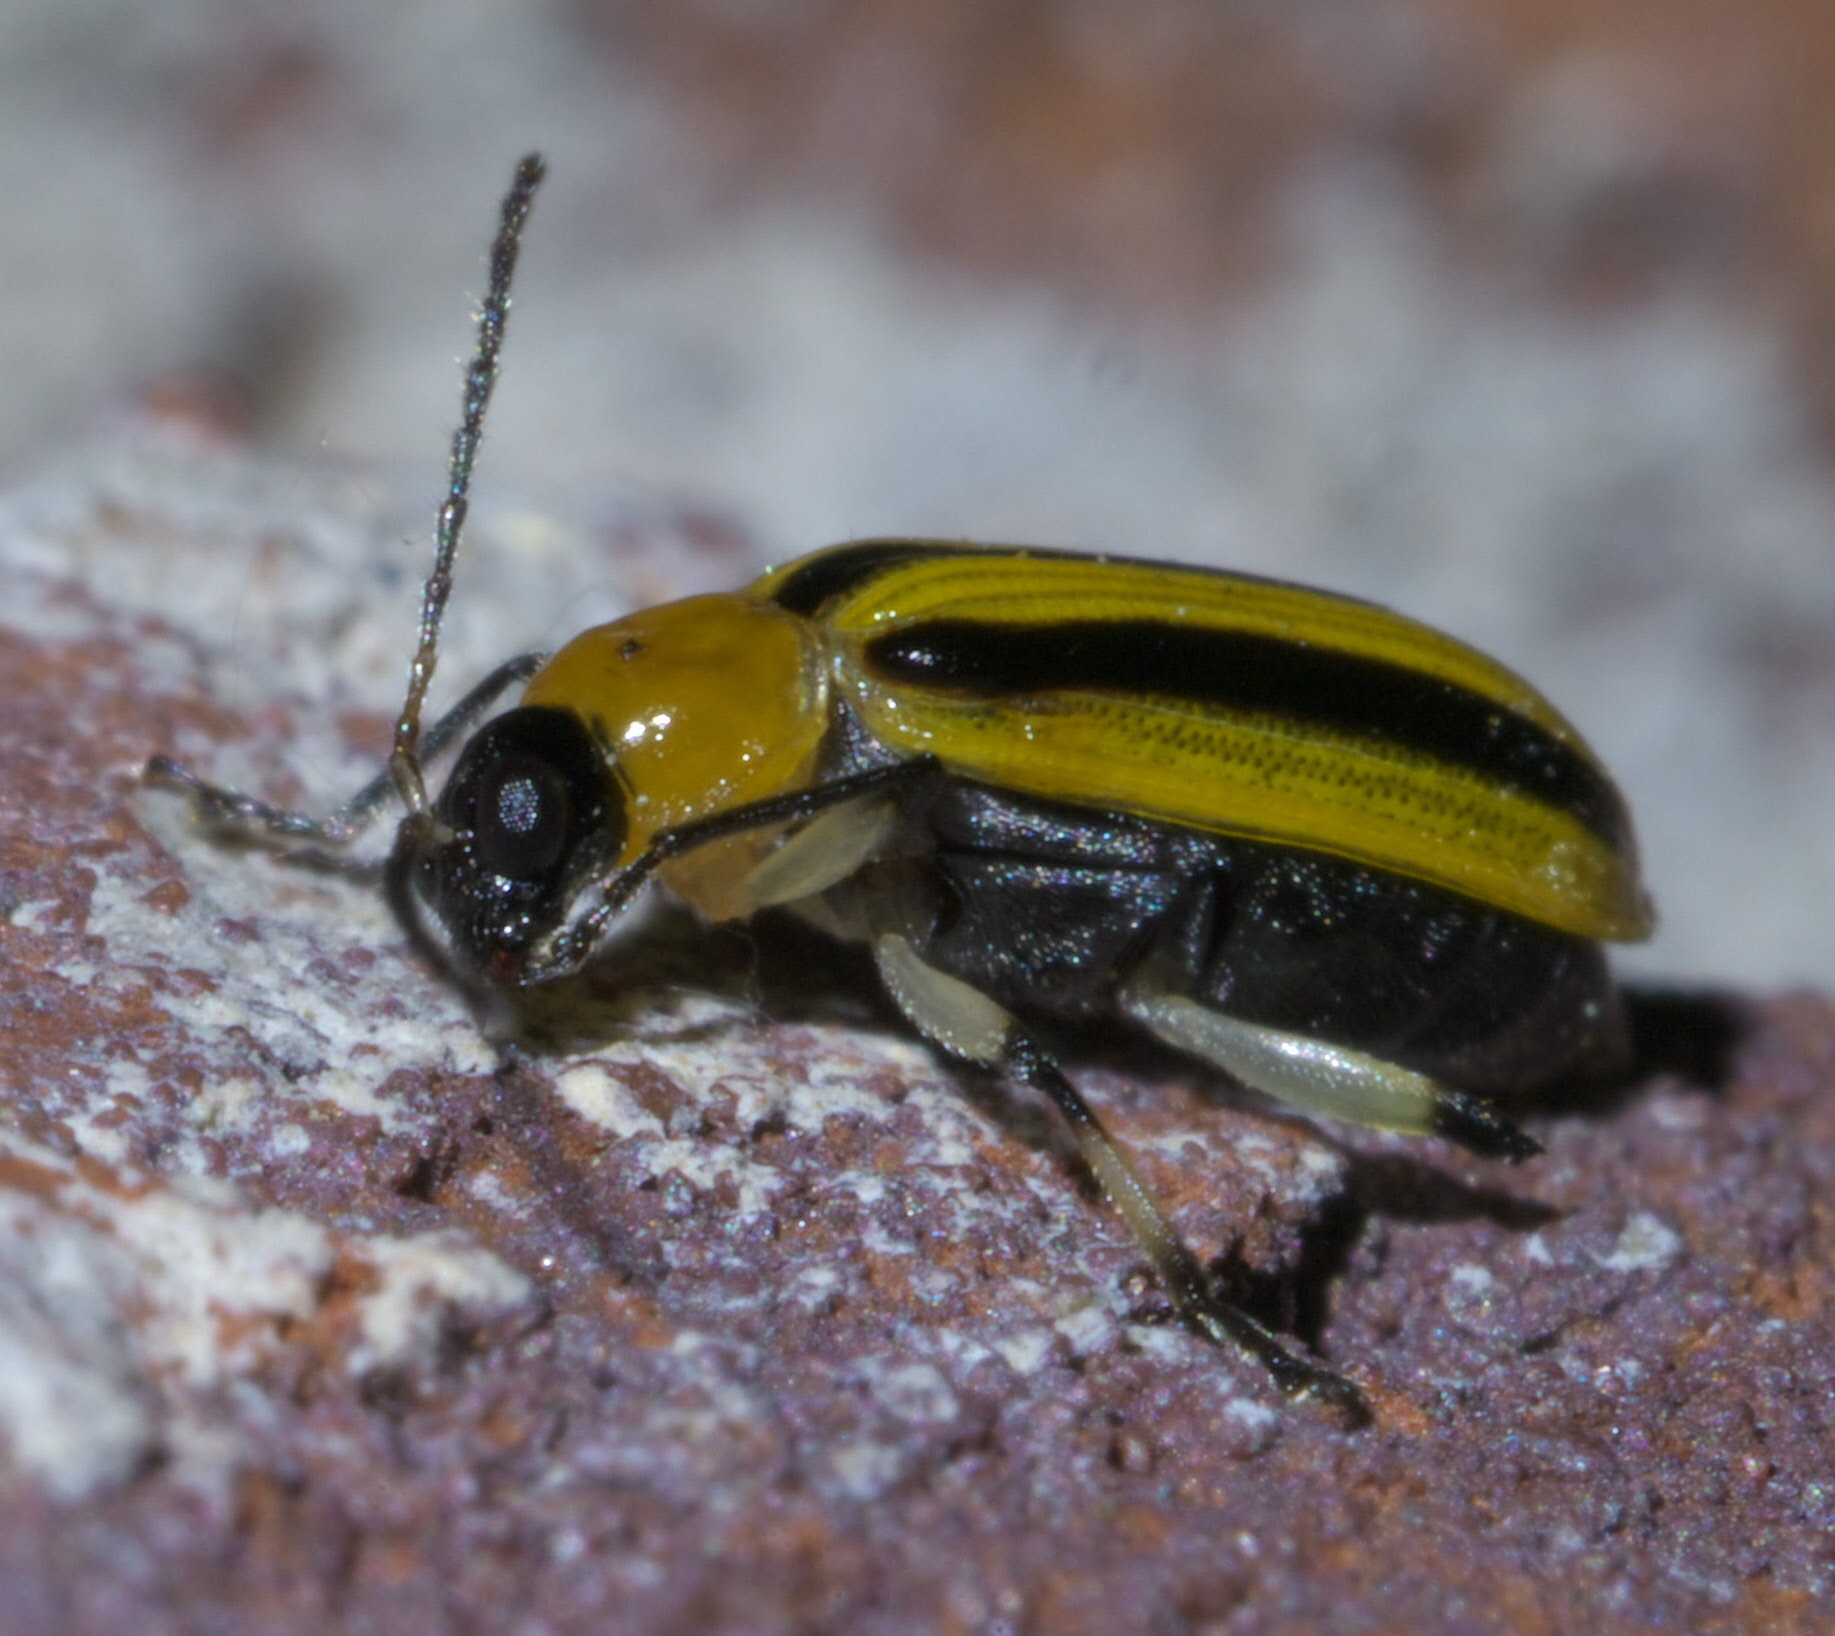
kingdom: Animalia
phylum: Arthropoda
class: Insecta
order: Coleoptera
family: Chrysomelidae
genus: Acalymma
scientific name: Acalymma vittatum
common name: Striped cucumber beetle
